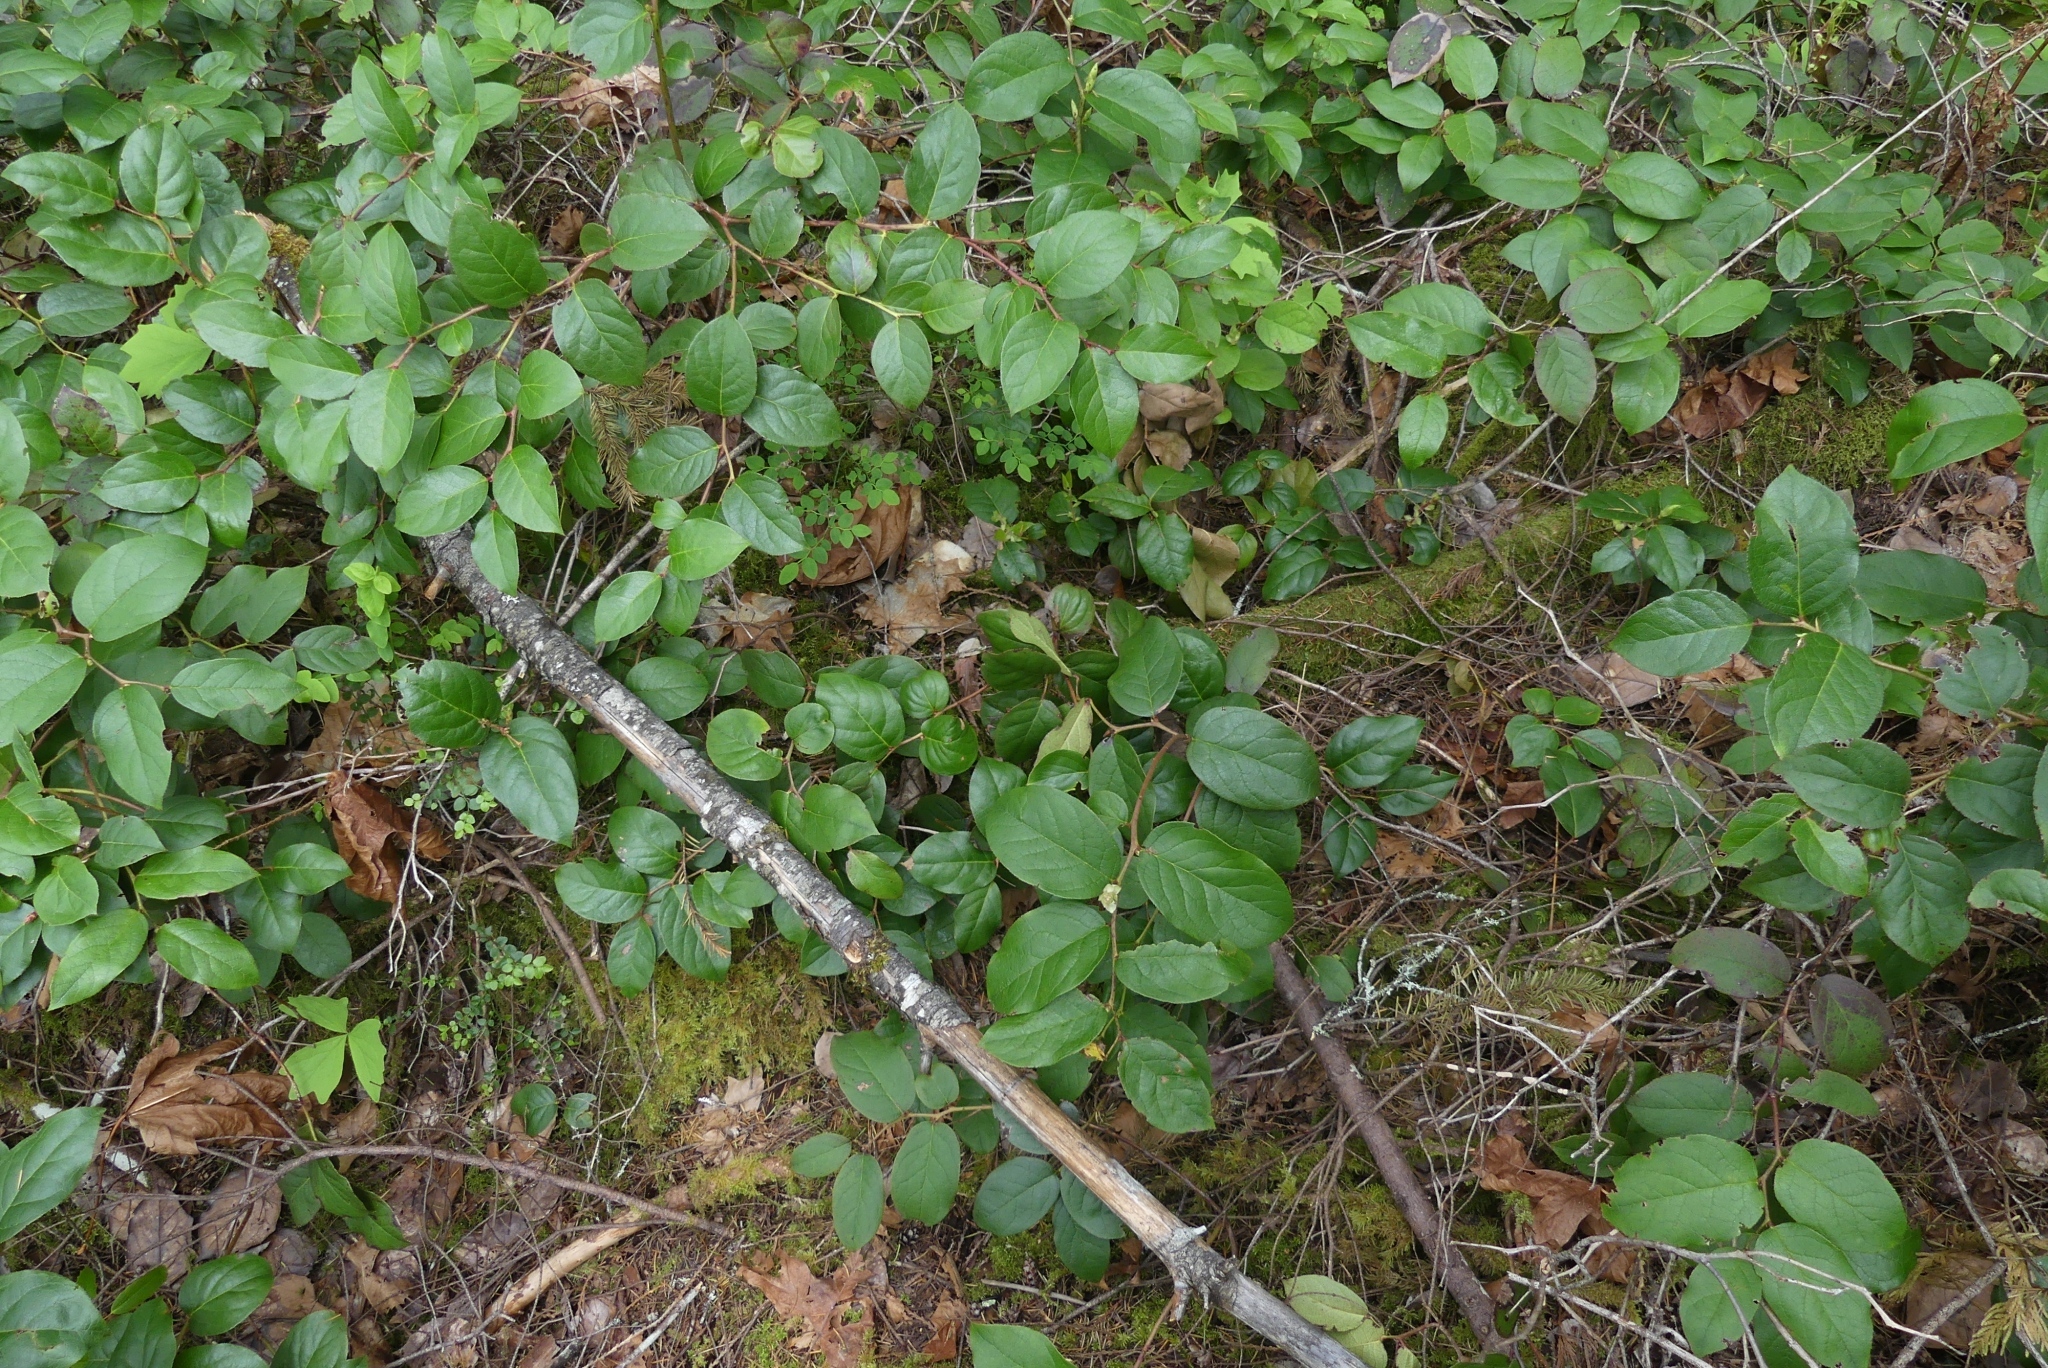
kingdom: Plantae
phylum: Tracheophyta
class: Magnoliopsida
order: Ericales
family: Ericaceae
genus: Gaultheria
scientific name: Gaultheria shallon
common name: Shallon
